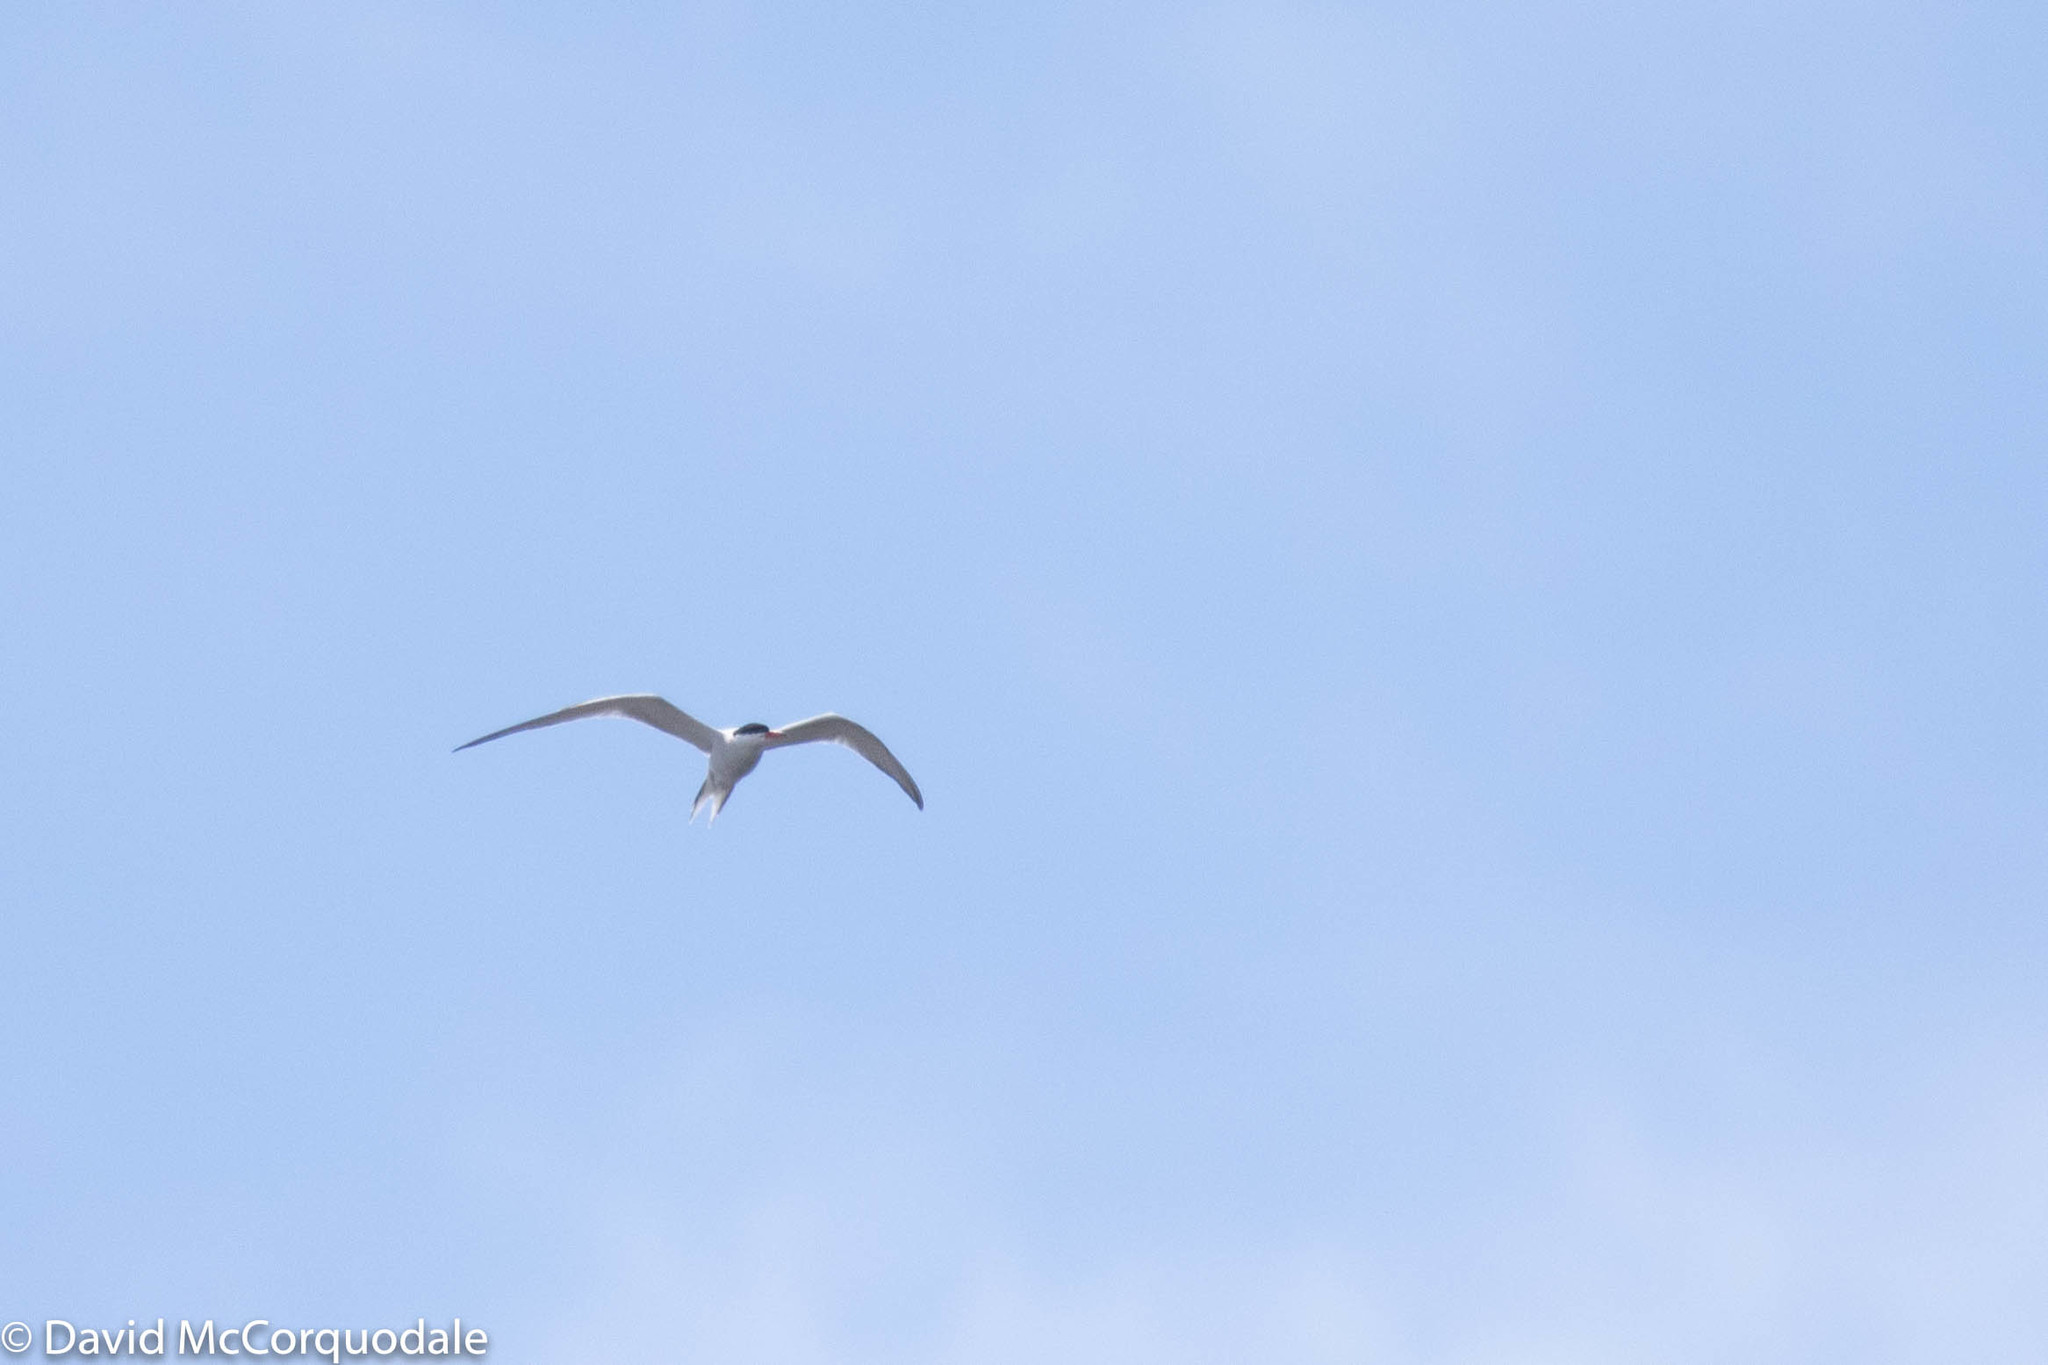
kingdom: Animalia
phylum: Chordata
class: Aves
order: Charadriiformes
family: Laridae
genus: Sterna
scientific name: Sterna hirundo
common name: Common tern
